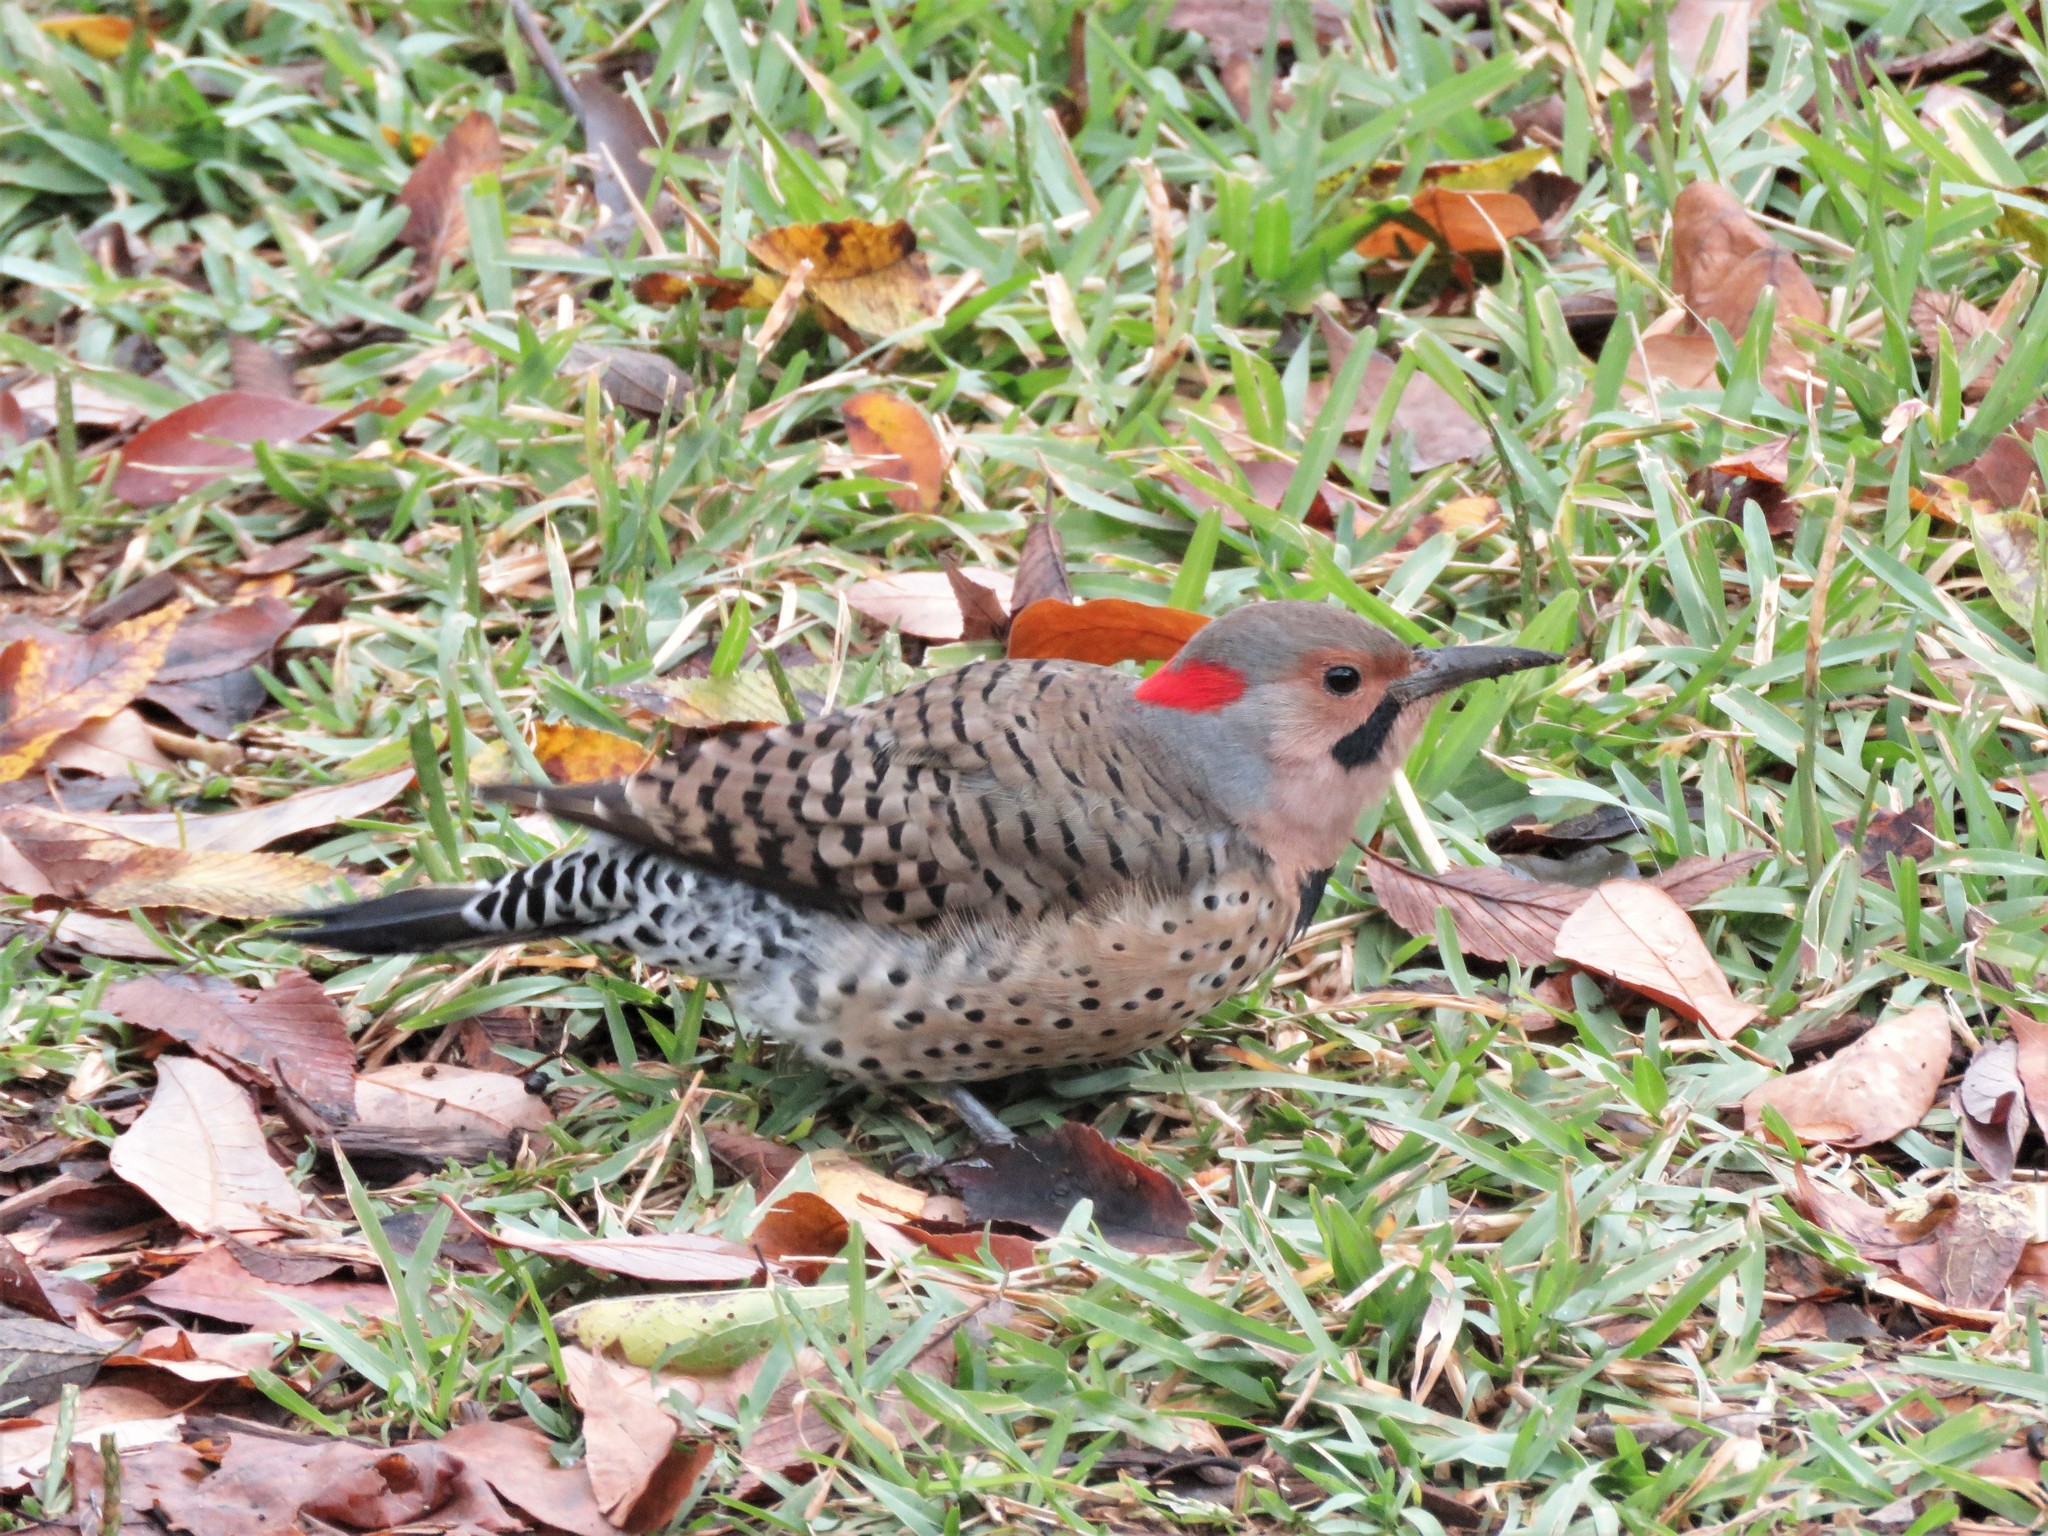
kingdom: Animalia
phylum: Chordata
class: Aves
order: Piciformes
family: Picidae
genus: Colaptes
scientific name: Colaptes auratus
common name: Northern flicker
